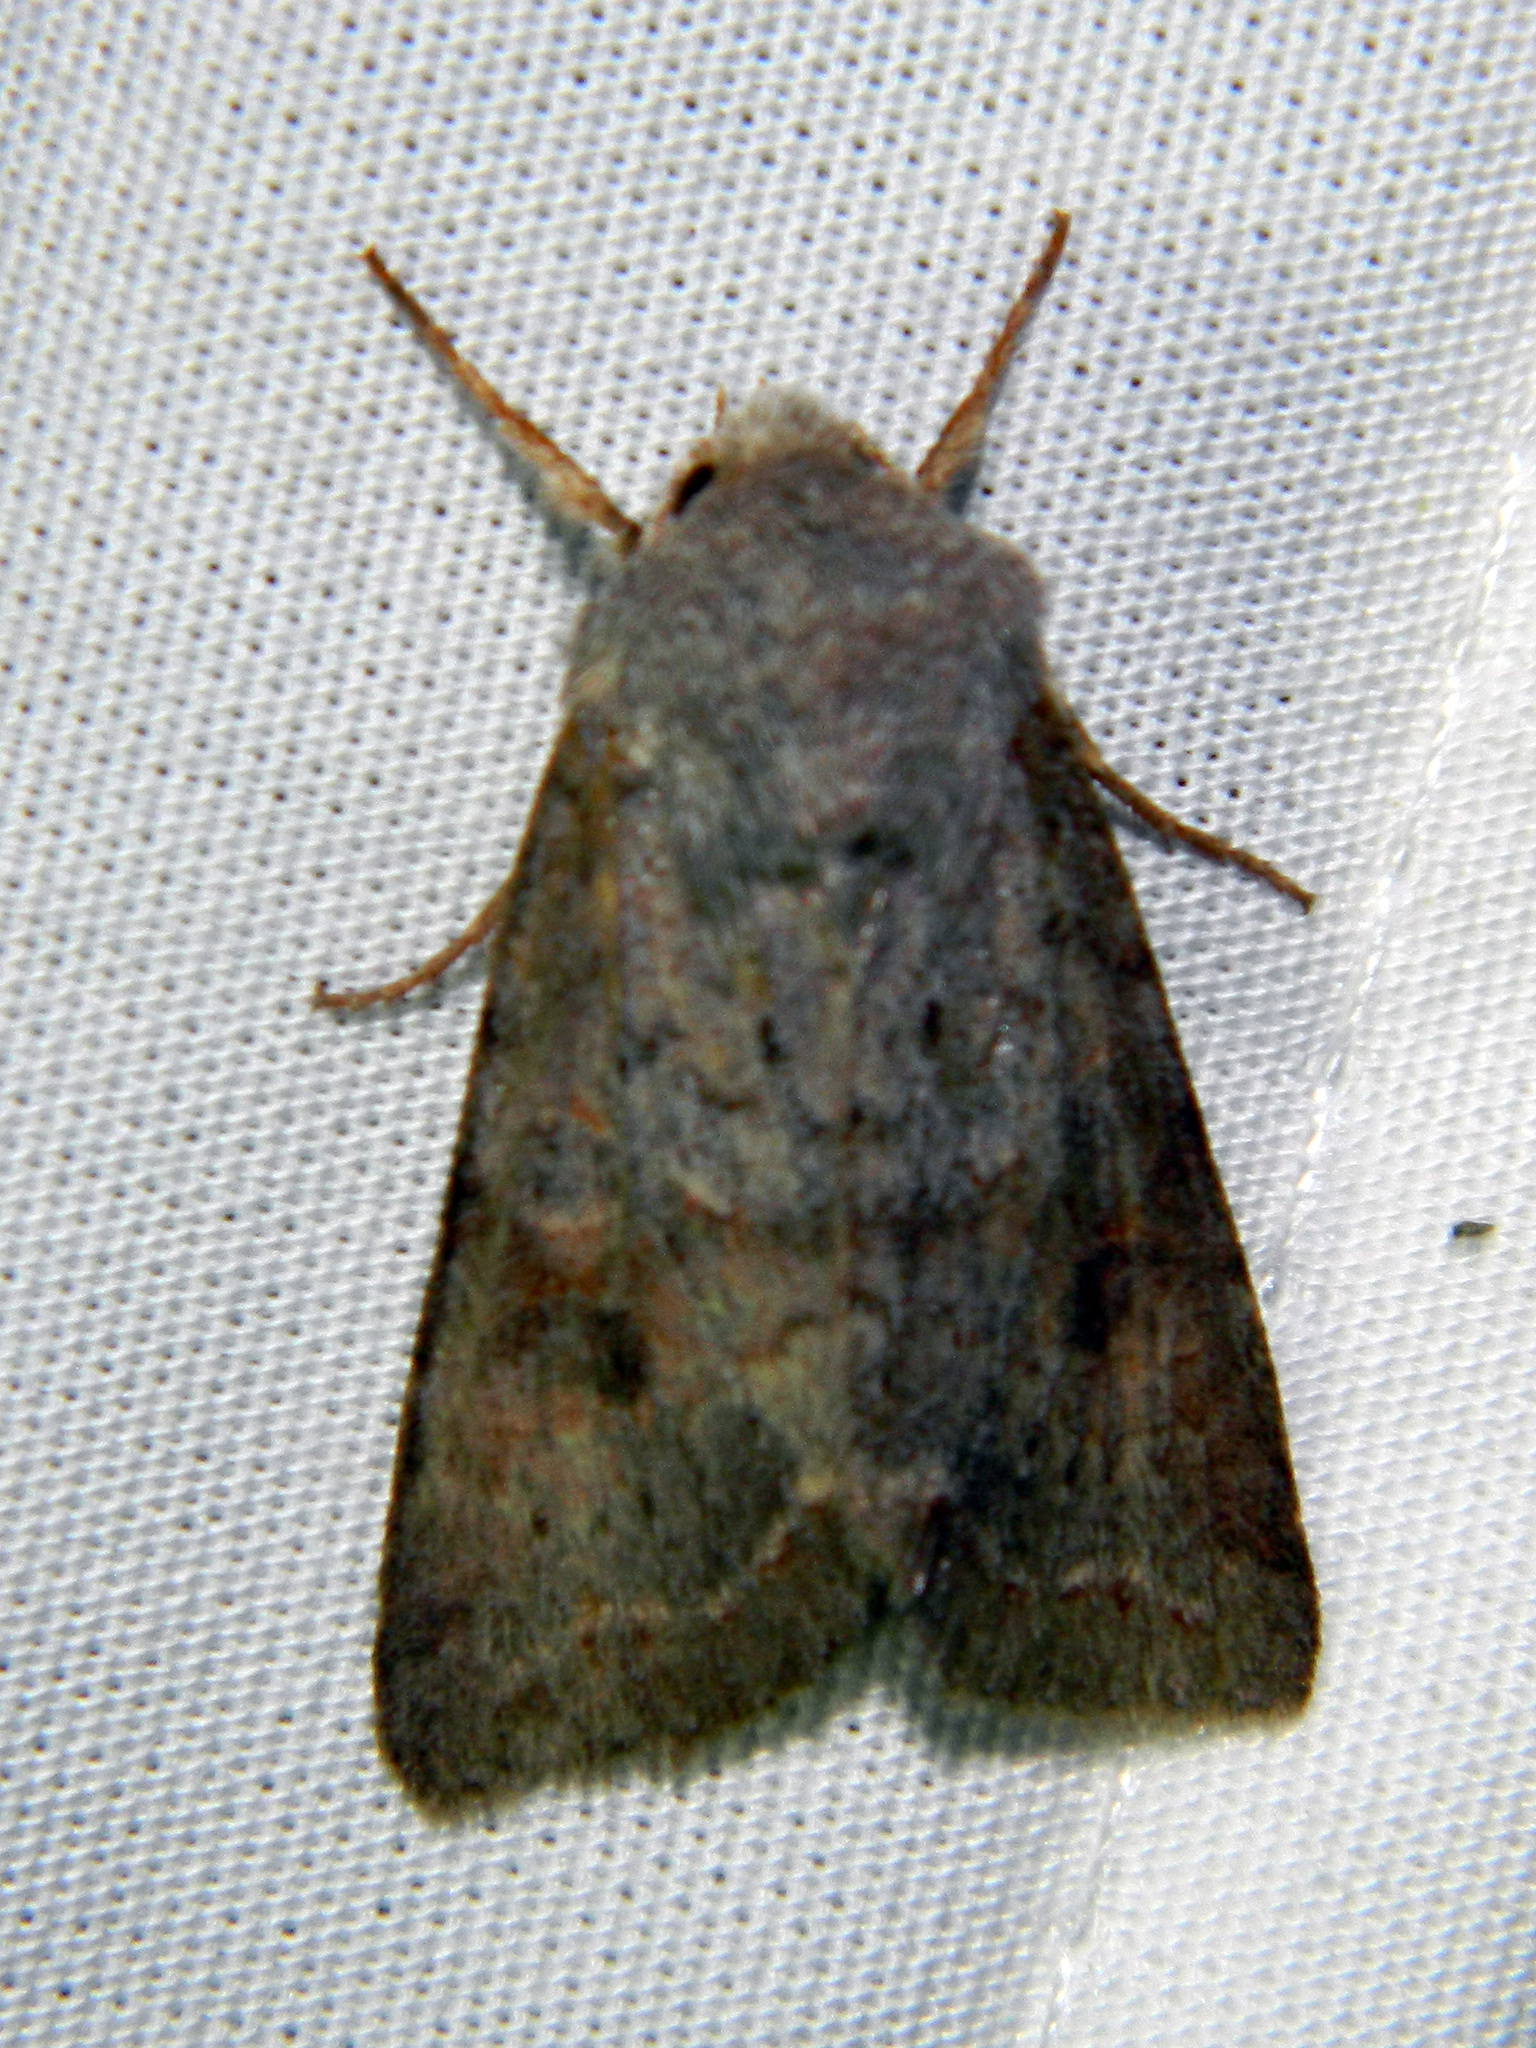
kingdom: Animalia
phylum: Arthropoda
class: Insecta
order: Lepidoptera
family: Noctuidae
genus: Orthosia
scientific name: Orthosia hibisci
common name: Green fruitworm
